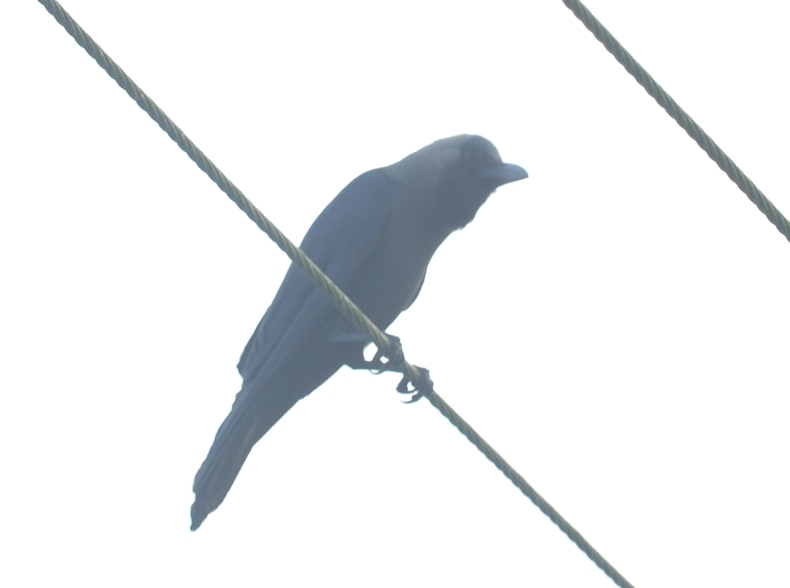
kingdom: Animalia
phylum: Chordata
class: Aves
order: Passeriformes
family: Corvidae
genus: Corvus
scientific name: Corvus splendens
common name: House crow
